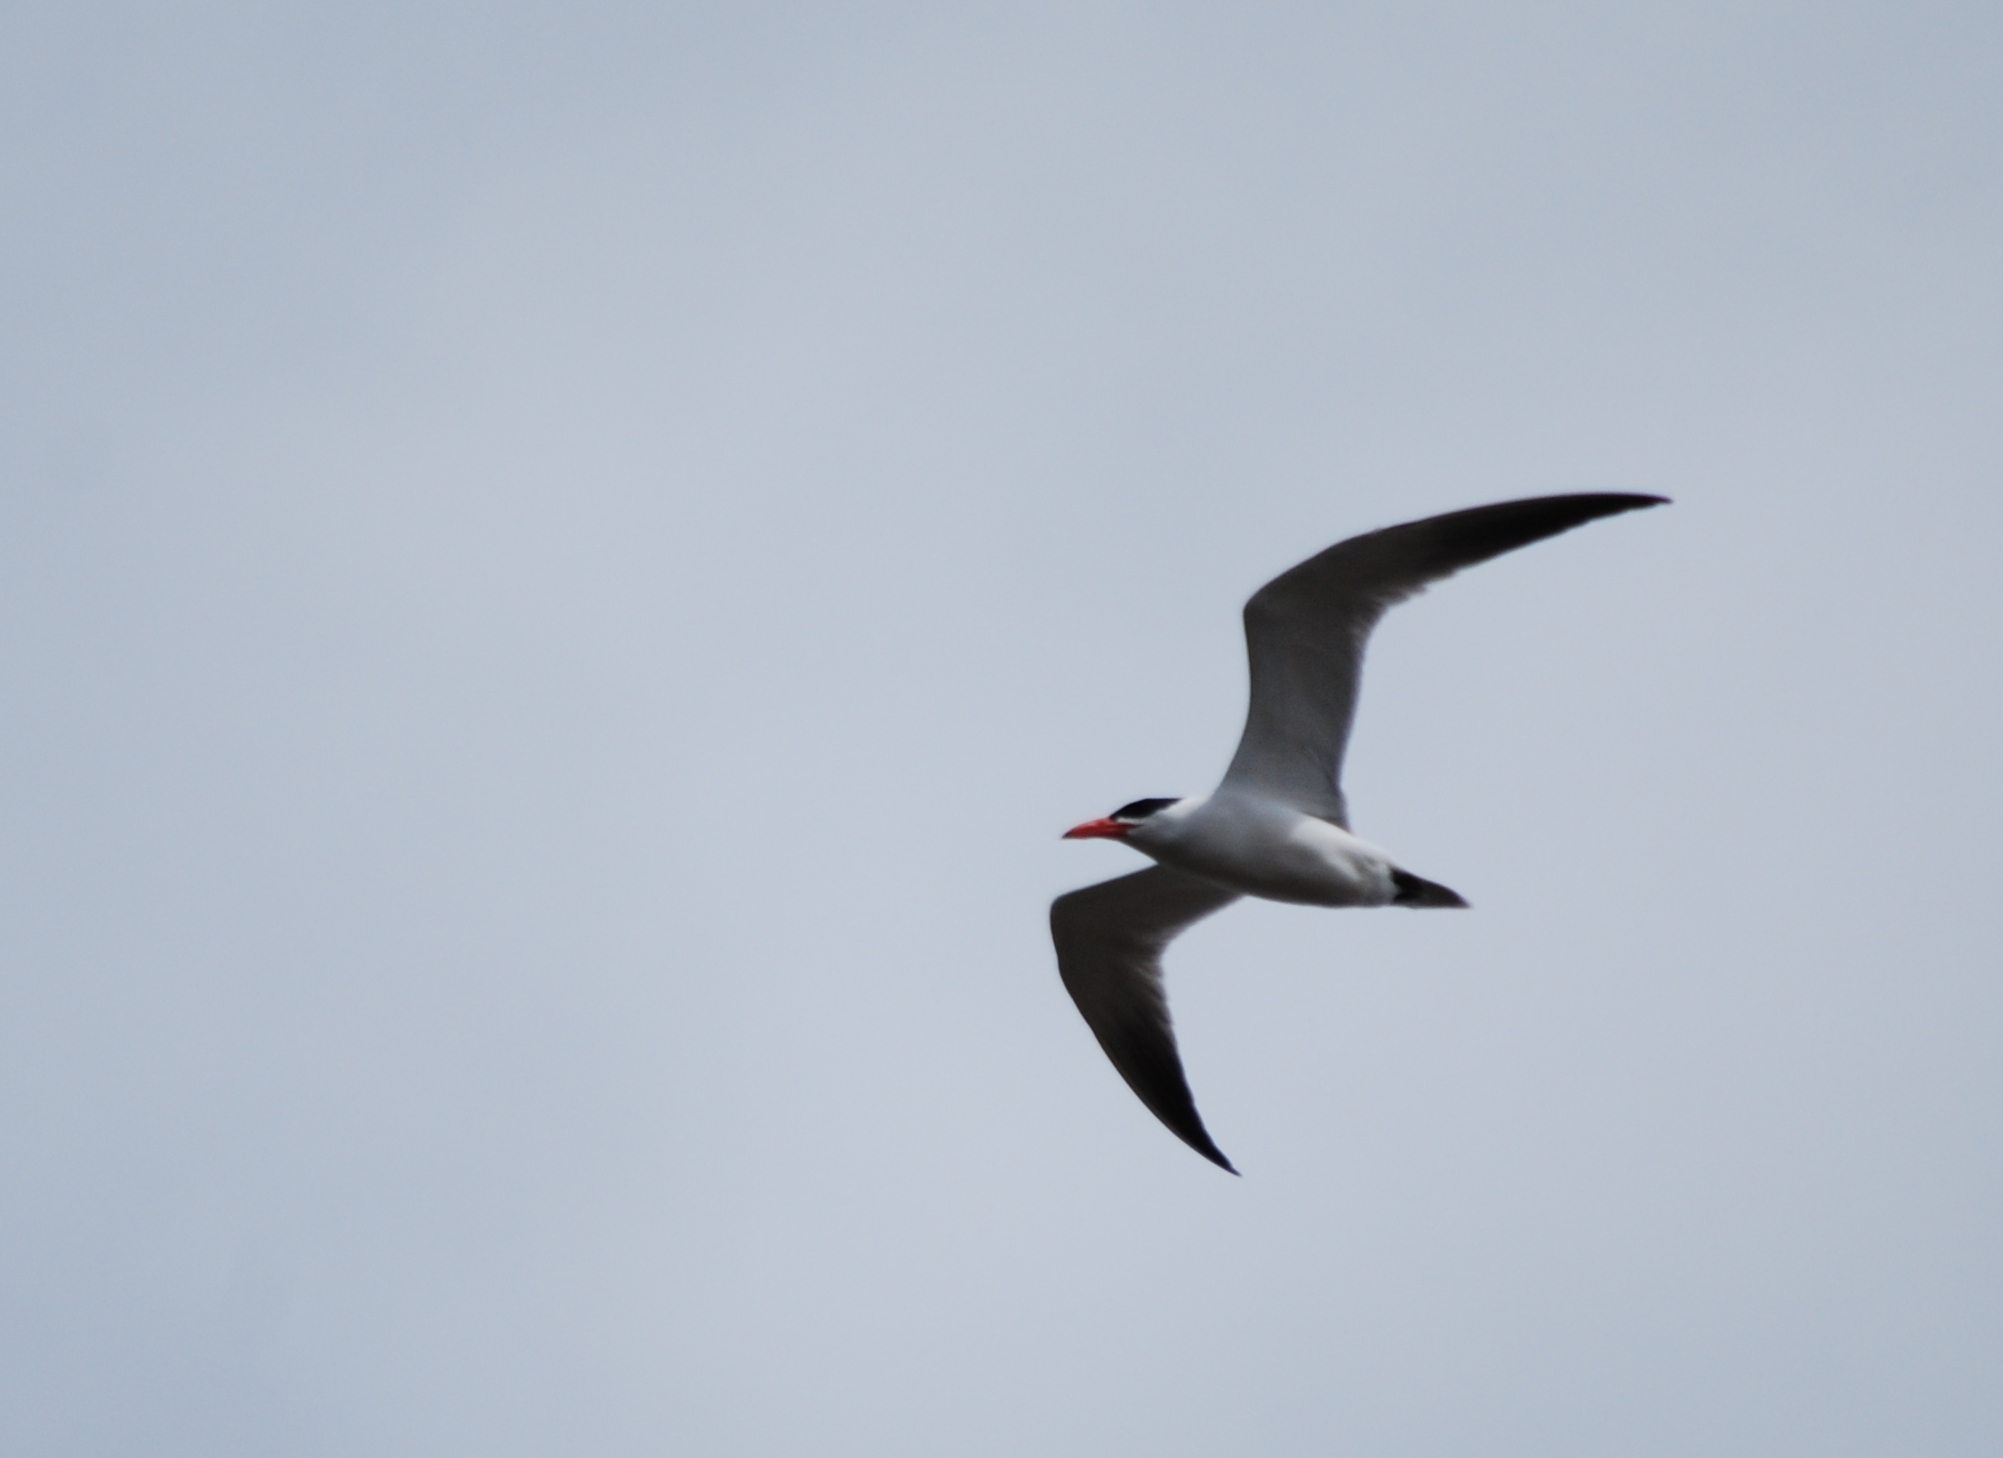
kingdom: Animalia
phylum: Chordata
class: Aves
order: Charadriiformes
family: Laridae
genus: Hydroprogne
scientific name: Hydroprogne caspia
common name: Caspian tern
